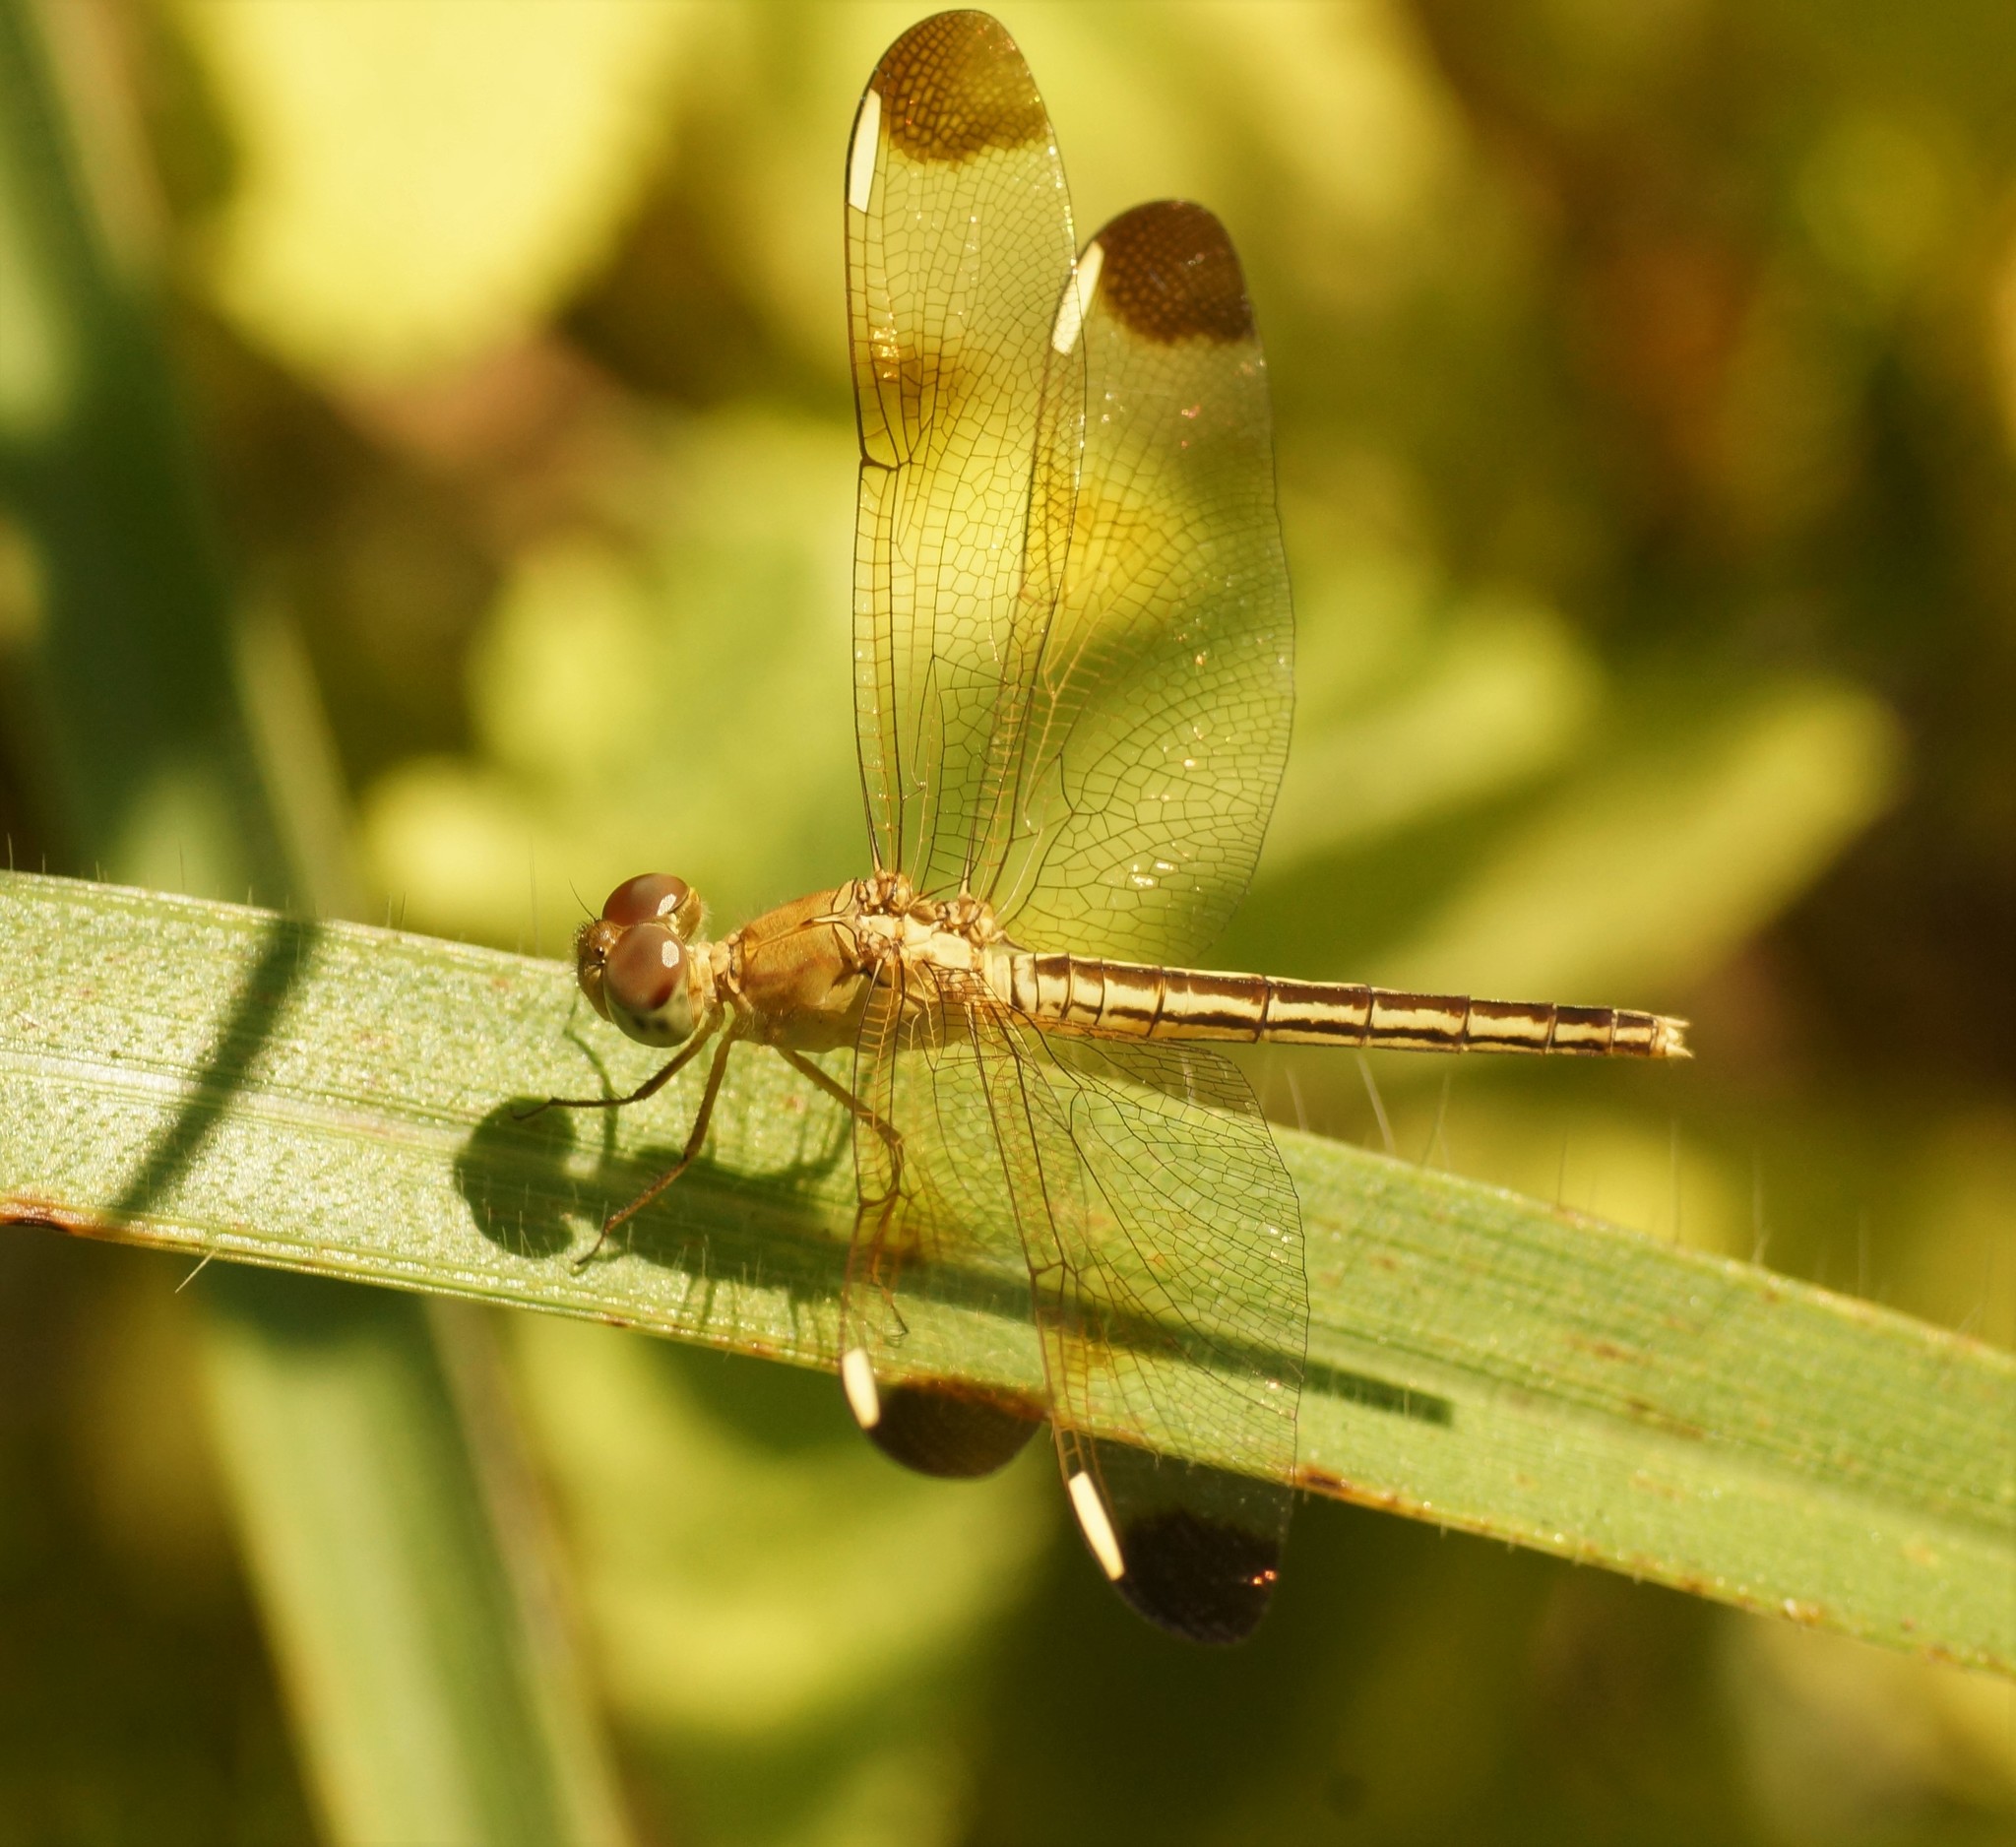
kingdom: Animalia
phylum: Arthropoda
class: Insecta
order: Odonata
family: Libellulidae
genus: Neurothemis
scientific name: Neurothemis stigmatizans
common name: Painted grasshawk
